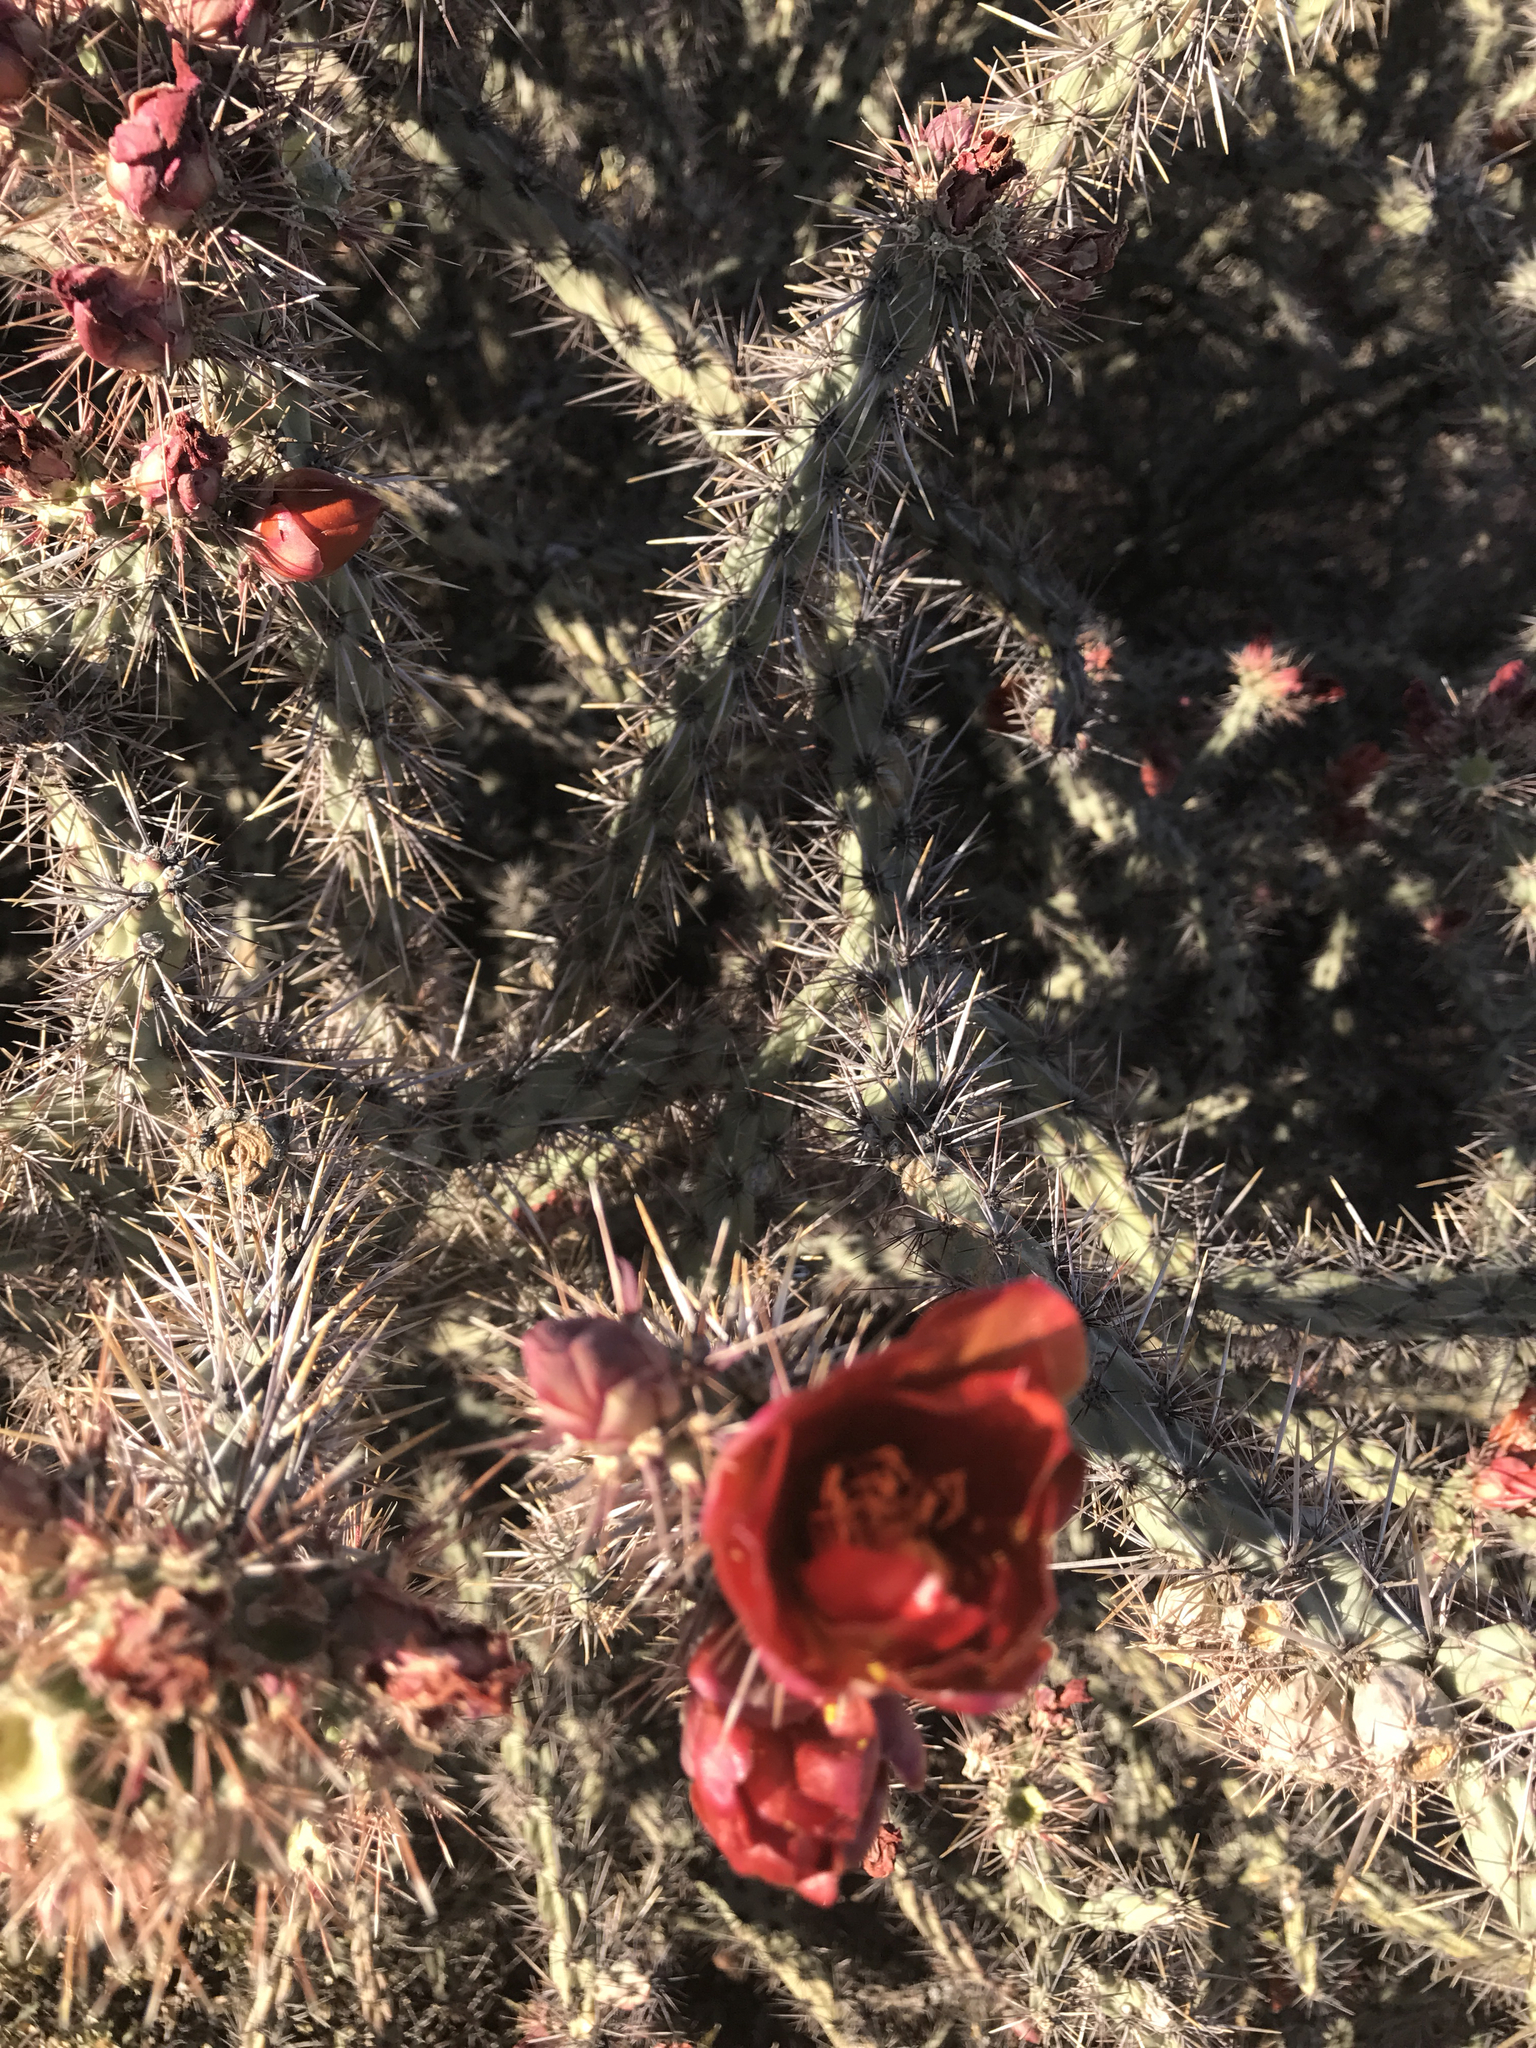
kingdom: Plantae
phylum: Tracheophyta
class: Magnoliopsida
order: Caryophyllales
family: Cactaceae
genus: Cylindropuntia
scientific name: Cylindropuntia thurberi
